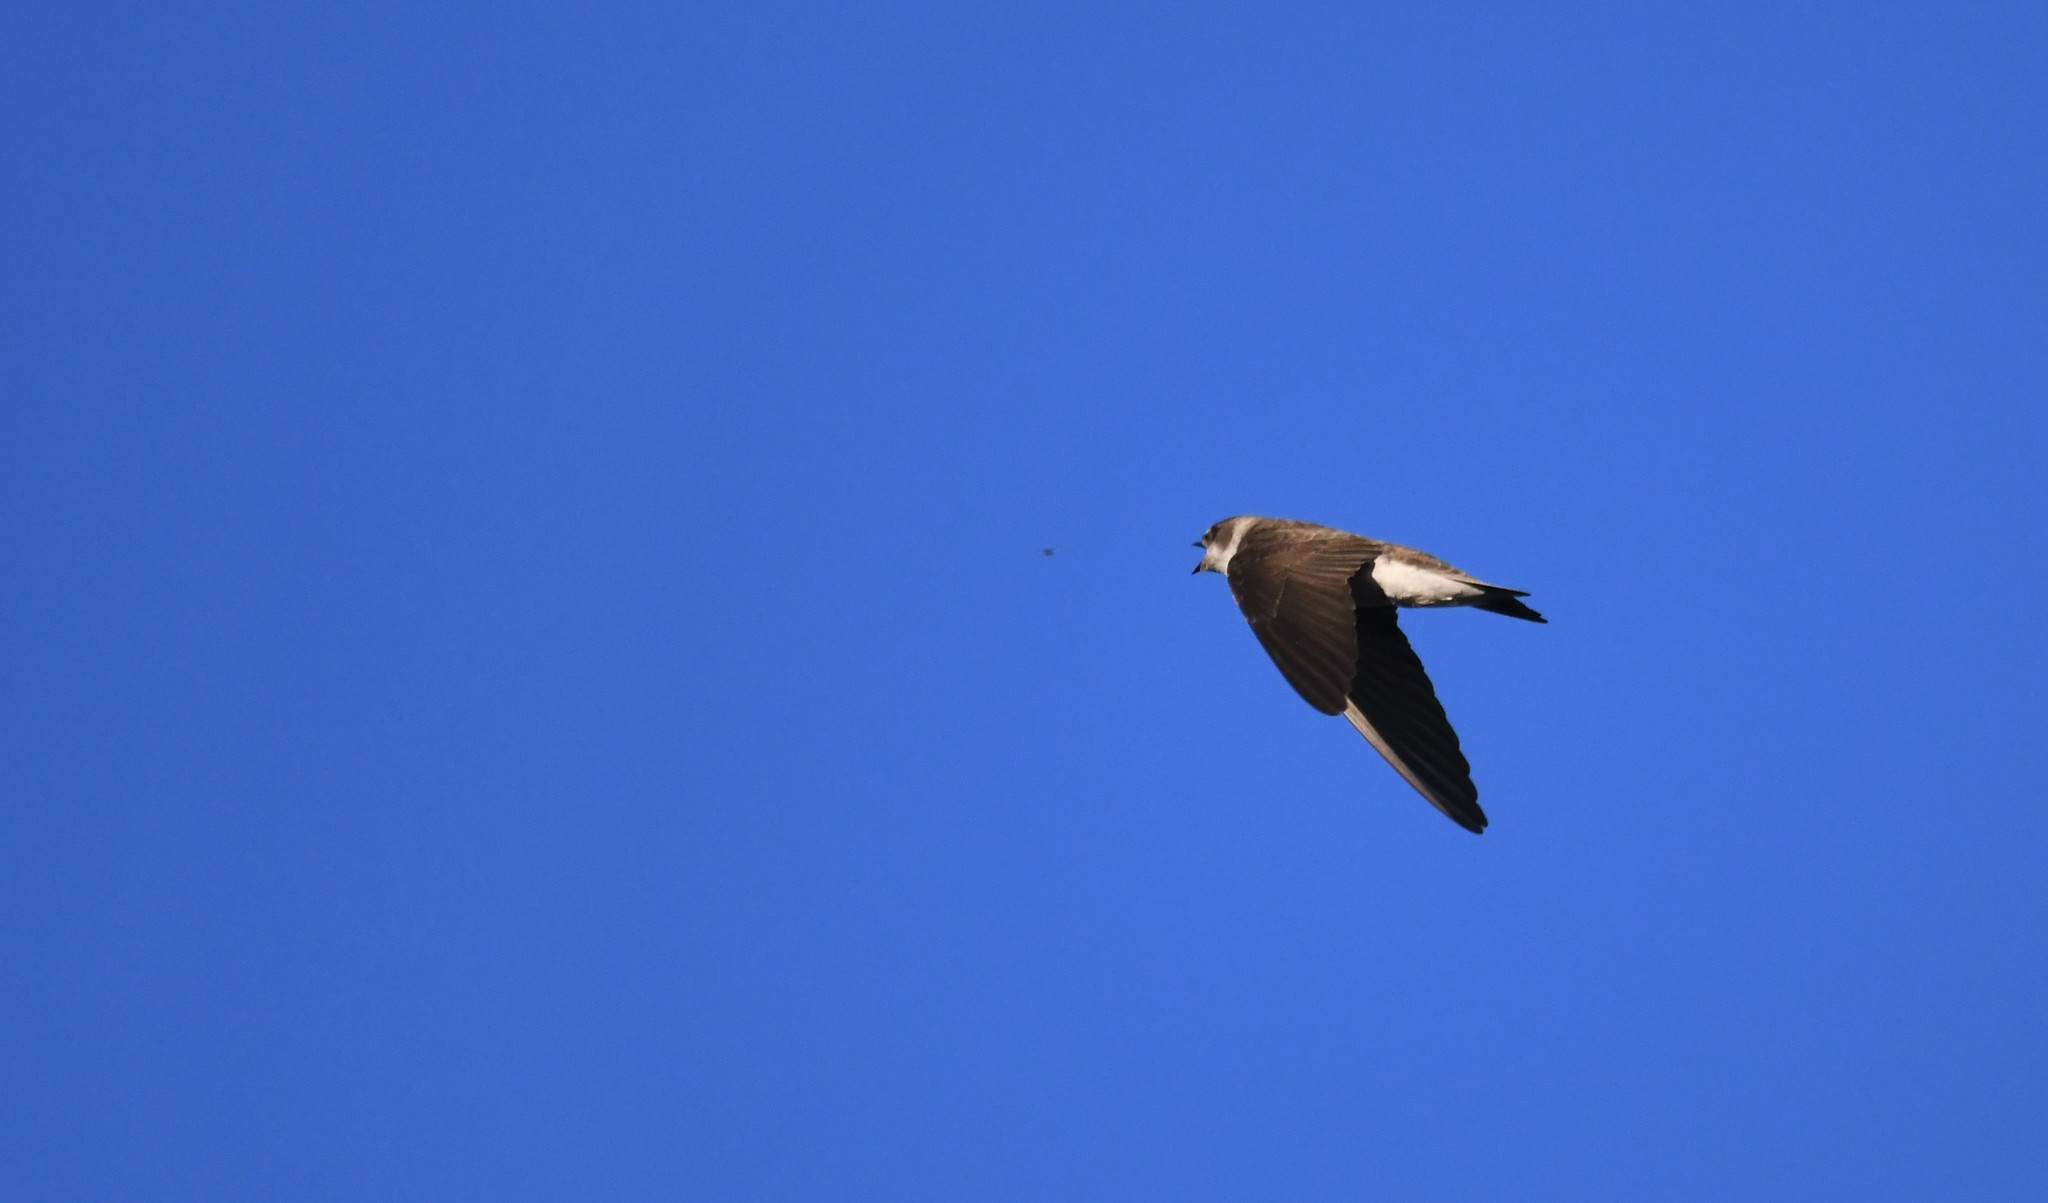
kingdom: Animalia
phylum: Chordata
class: Aves
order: Passeriformes
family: Hirundinidae
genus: Riparia
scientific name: Riparia riparia
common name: Sand martin
